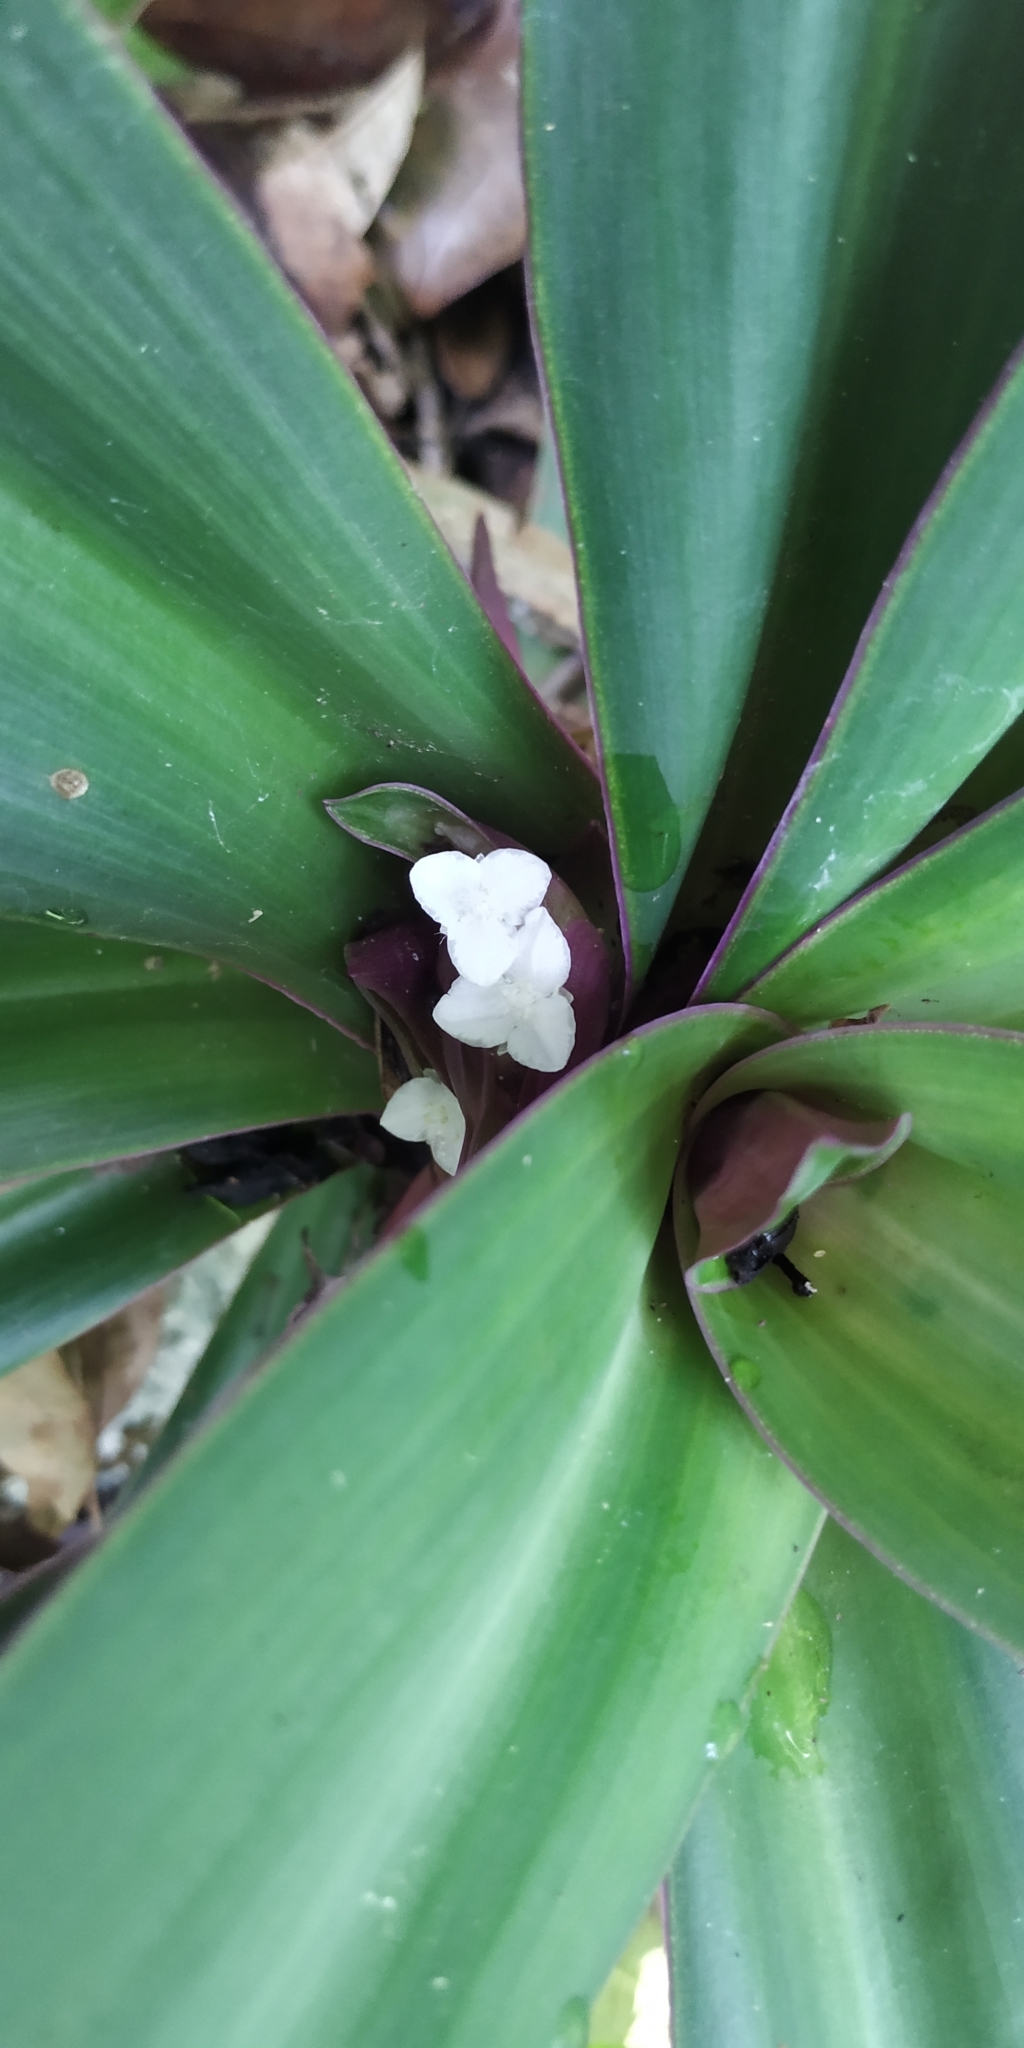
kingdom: Plantae
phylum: Tracheophyta
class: Liliopsida
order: Commelinales
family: Commelinaceae
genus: Tradescantia
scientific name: Tradescantia spathacea
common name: Boatlily
